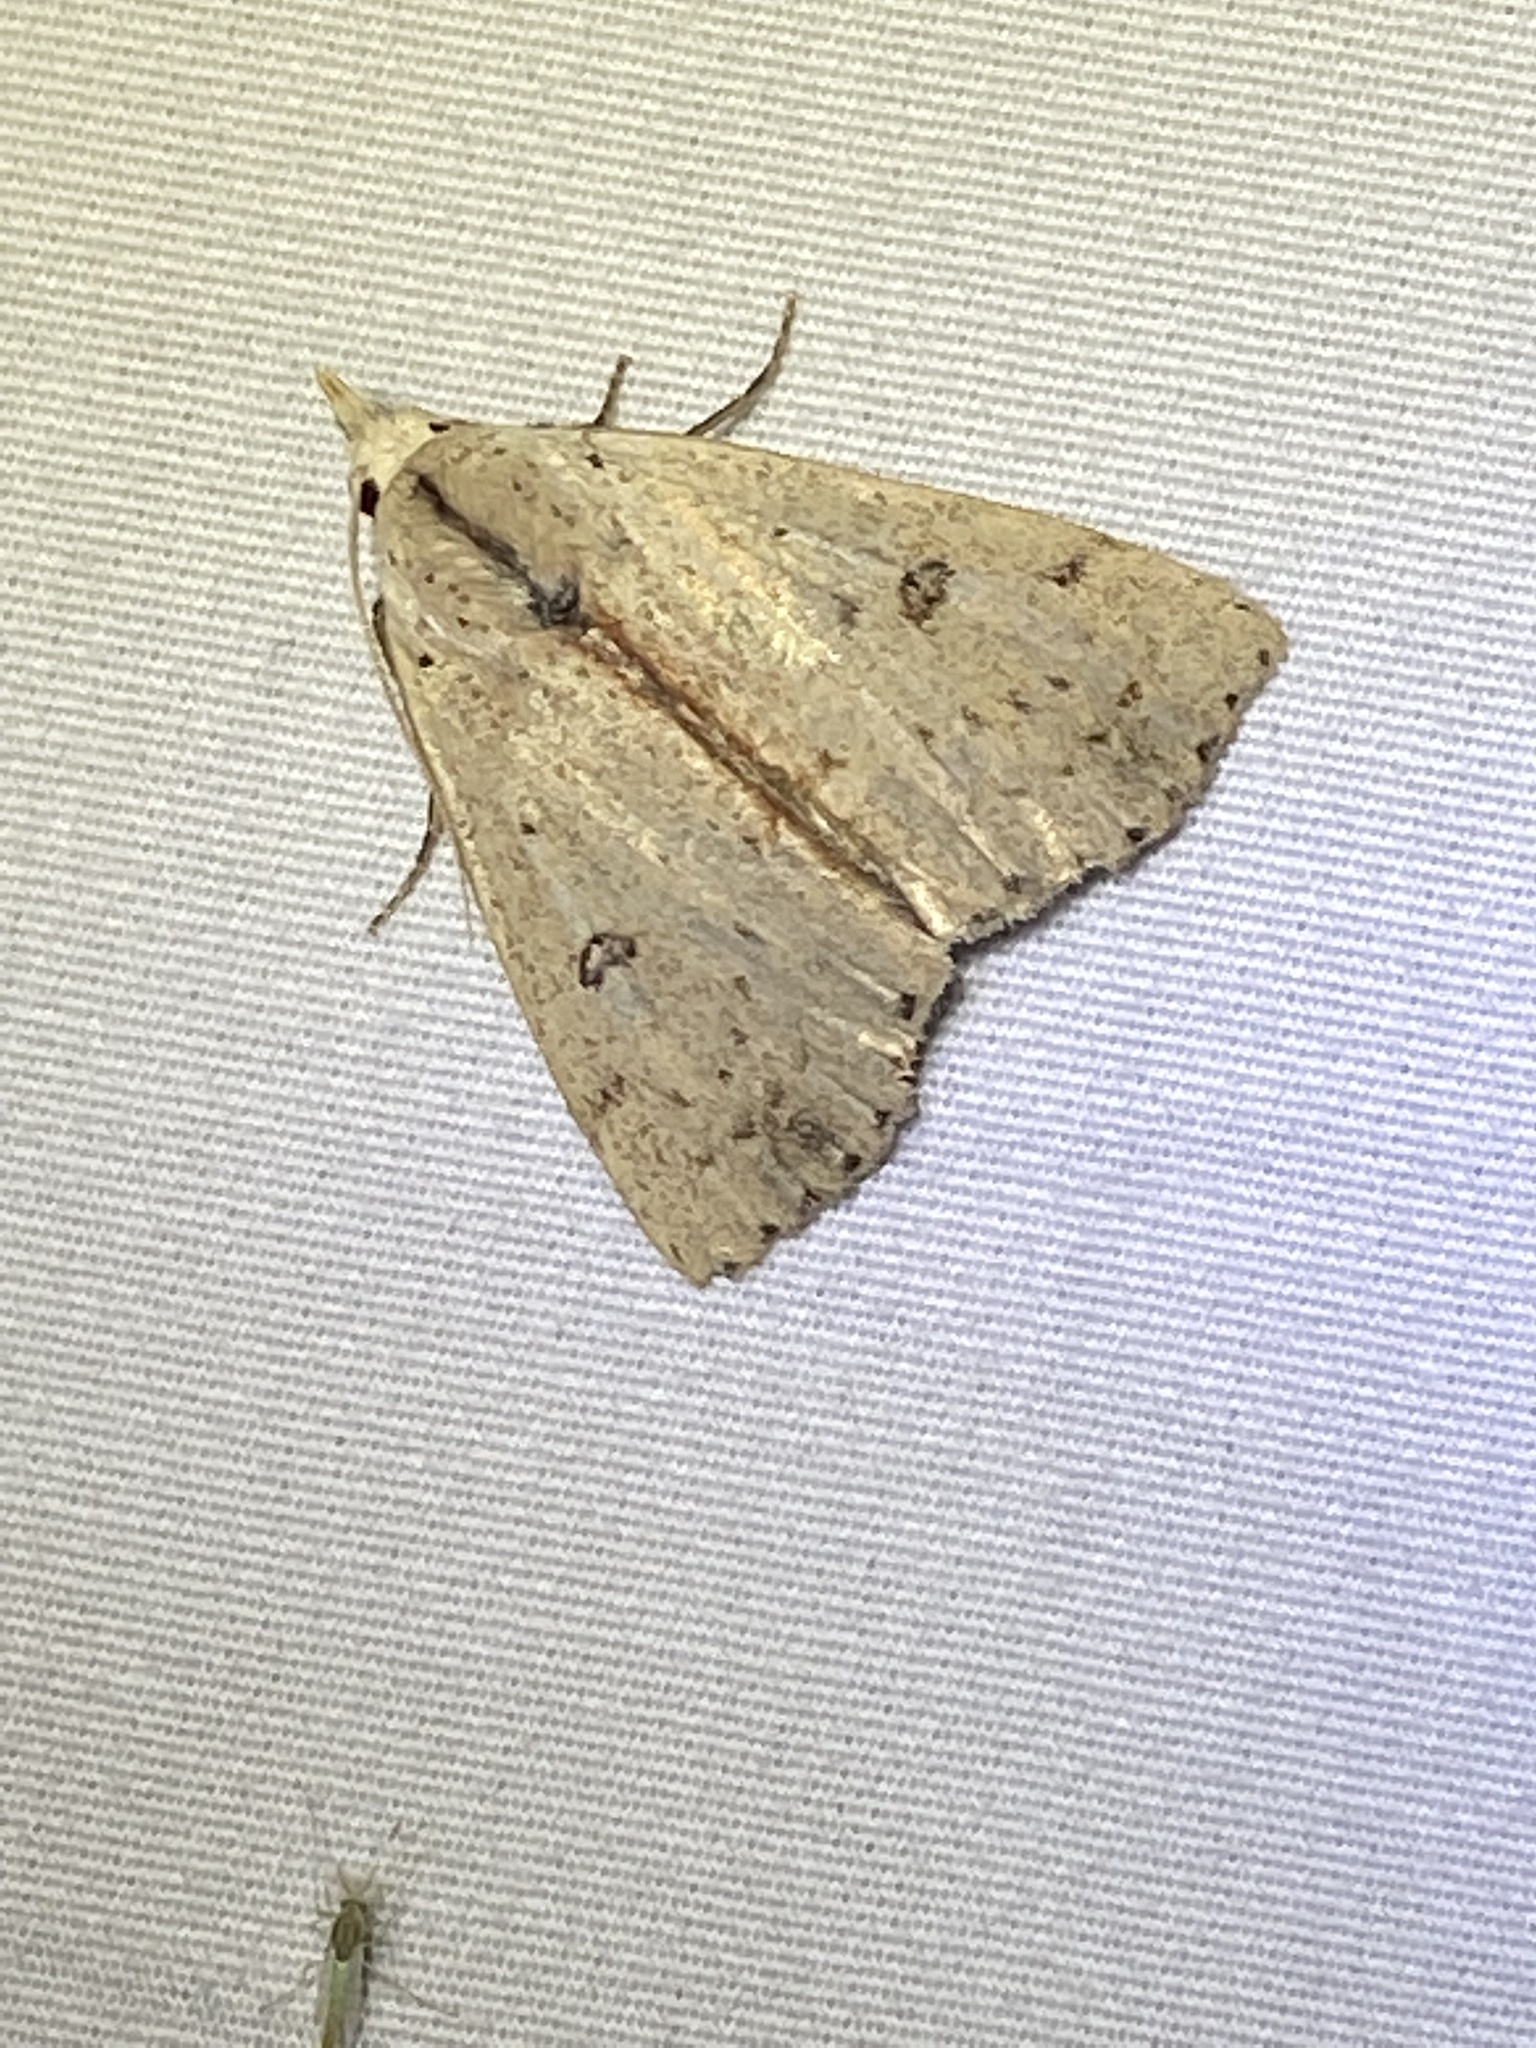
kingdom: Animalia
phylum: Arthropoda
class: Insecta
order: Lepidoptera
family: Erebidae
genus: Scolecocampa
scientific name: Scolecocampa liburna
